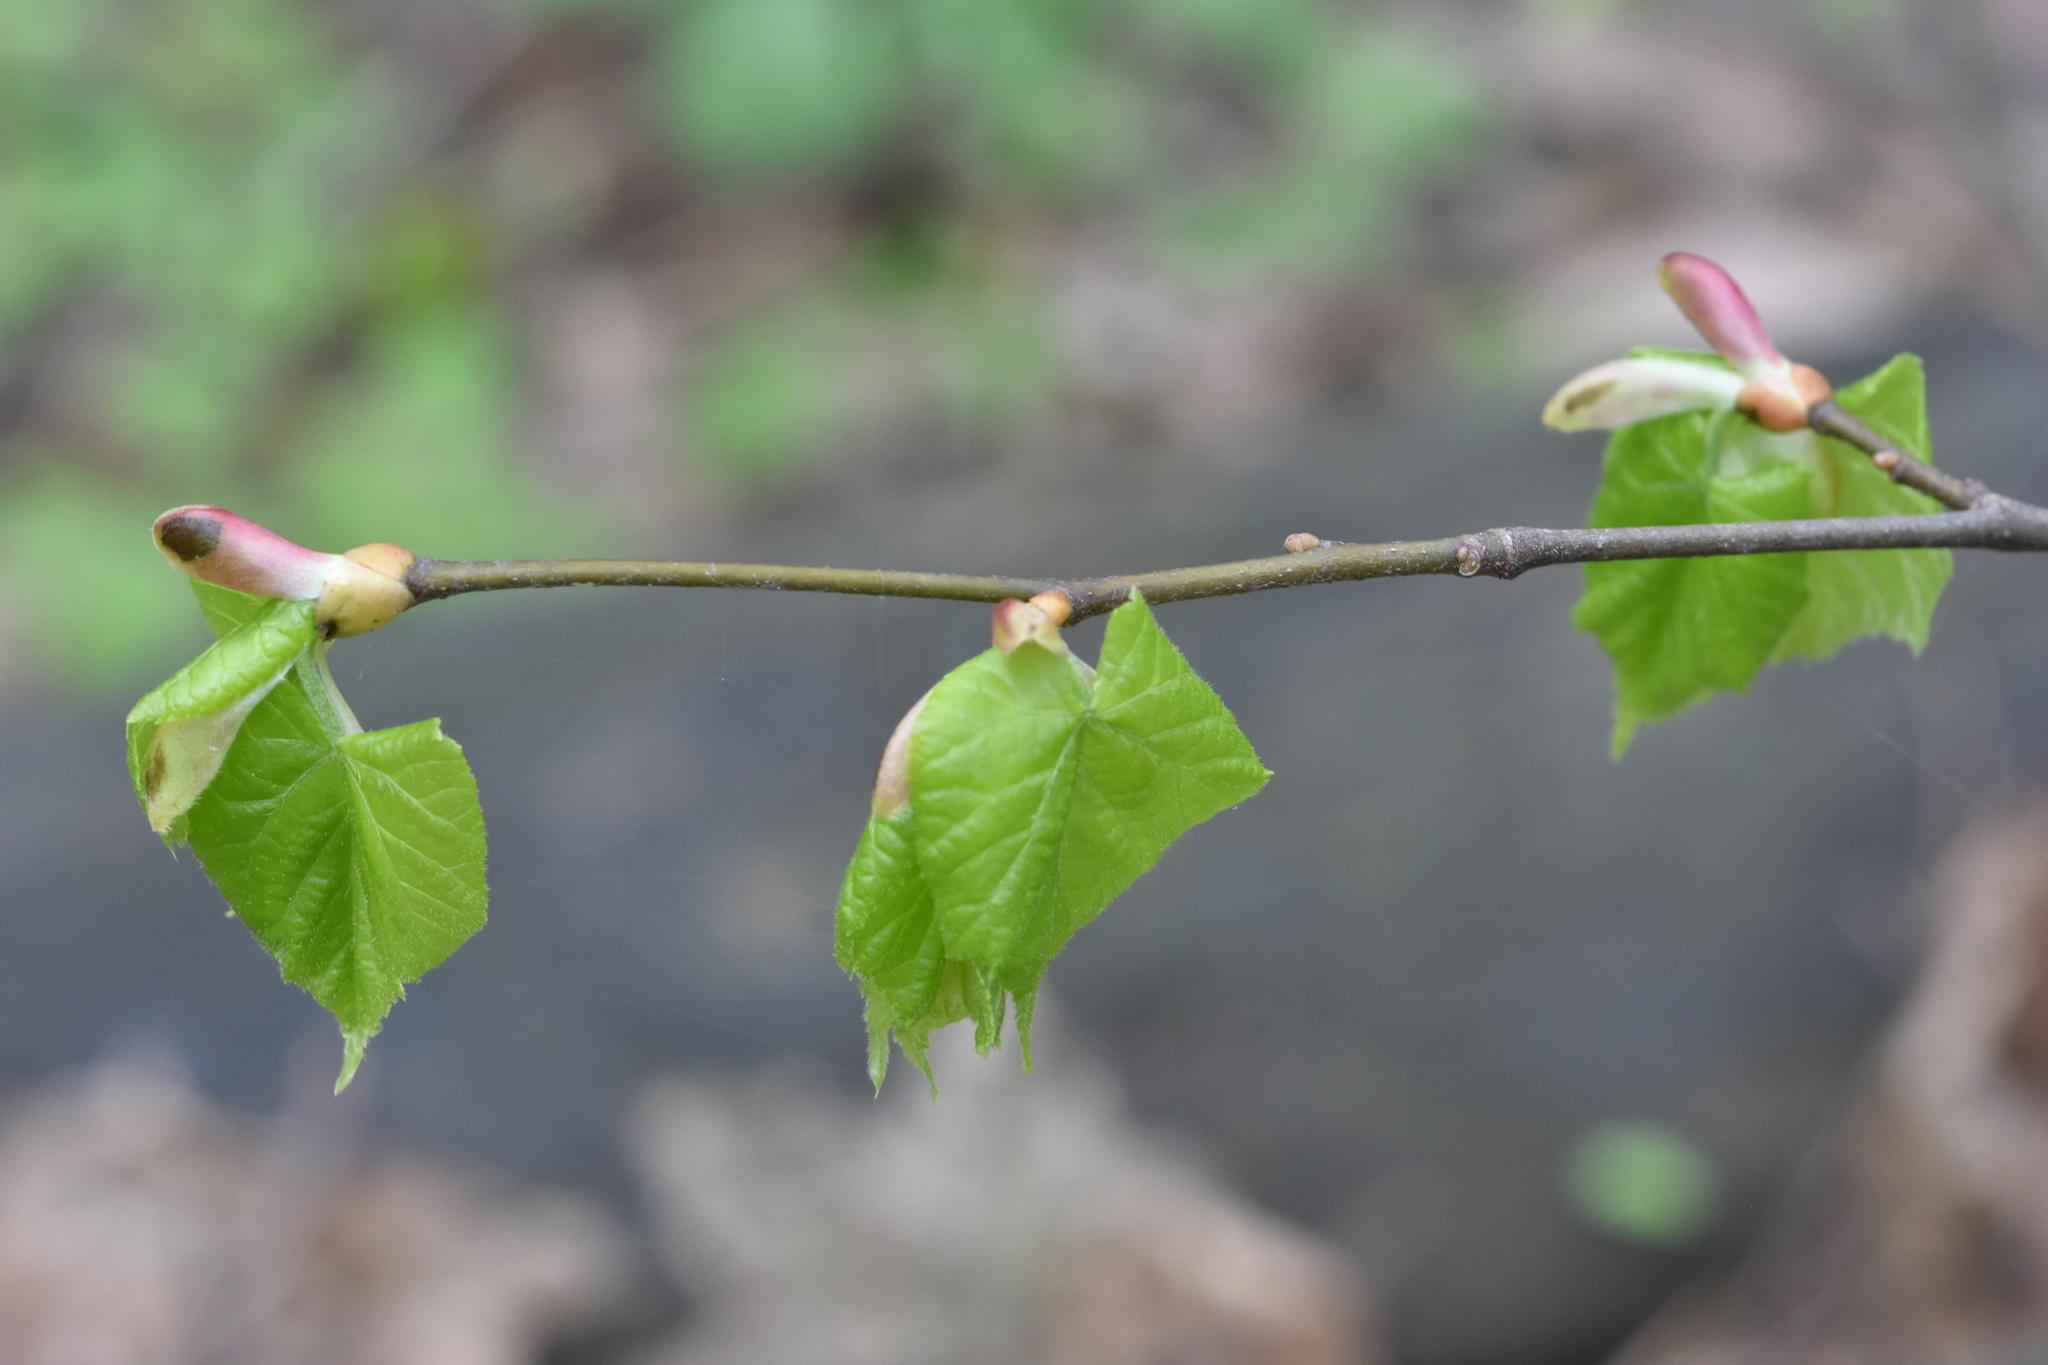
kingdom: Plantae
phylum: Tracheophyta
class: Magnoliopsida
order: Malvales
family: Malvaceae
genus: Tilia
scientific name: Tilia cordata
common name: Small-leaved lime
